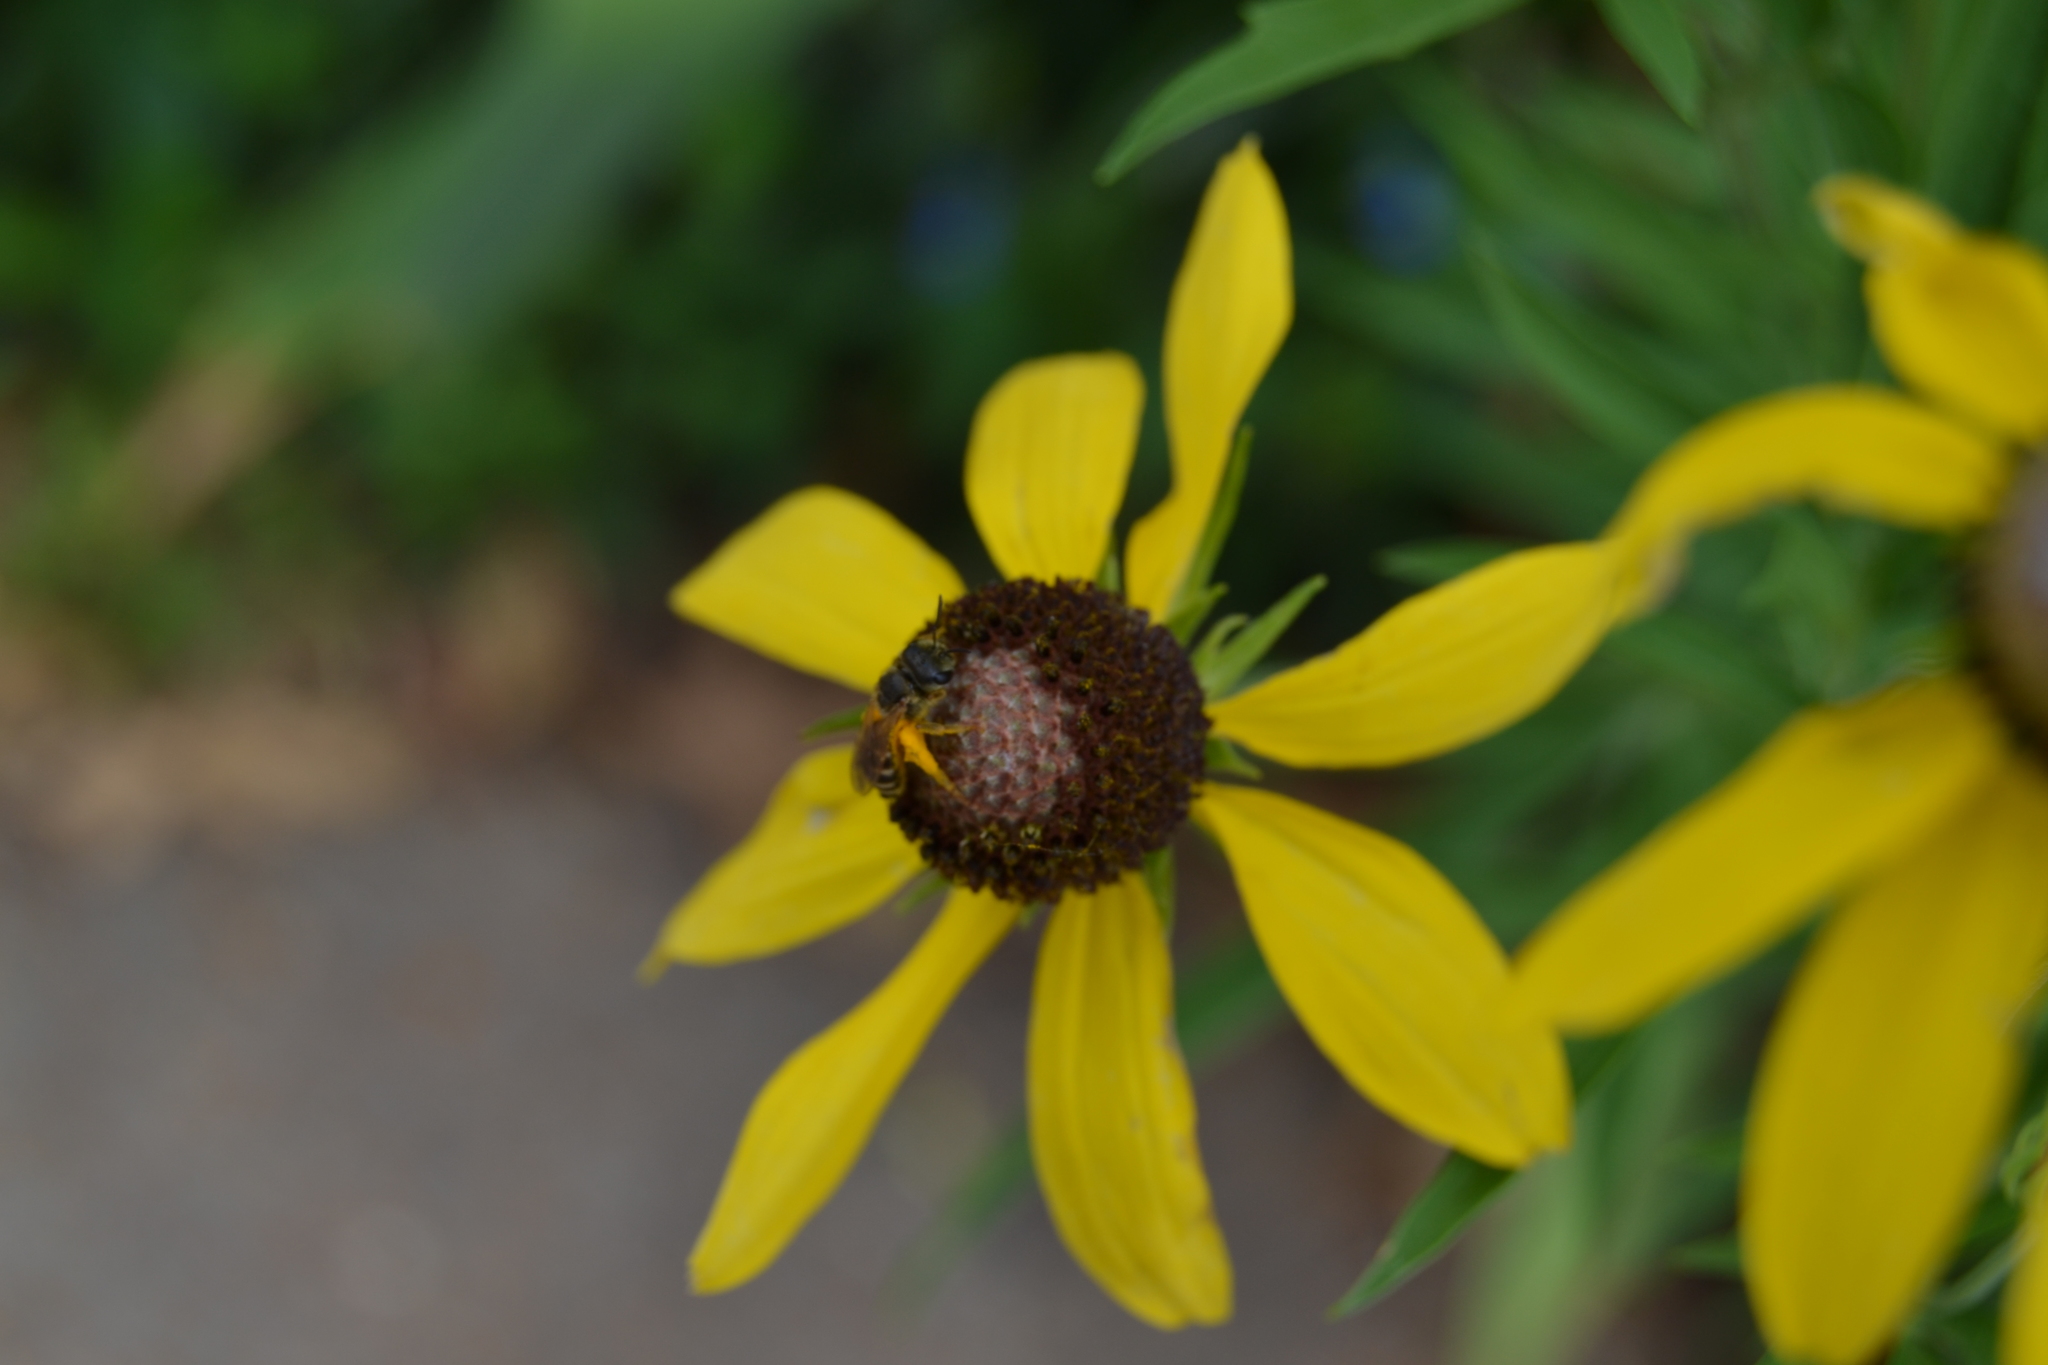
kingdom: Animalia
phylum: Arthropoda
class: Insecta
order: Hymenoptera
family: Halictidae
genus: Halictus
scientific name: Halictus ligatus
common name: Ligated furrow bee
